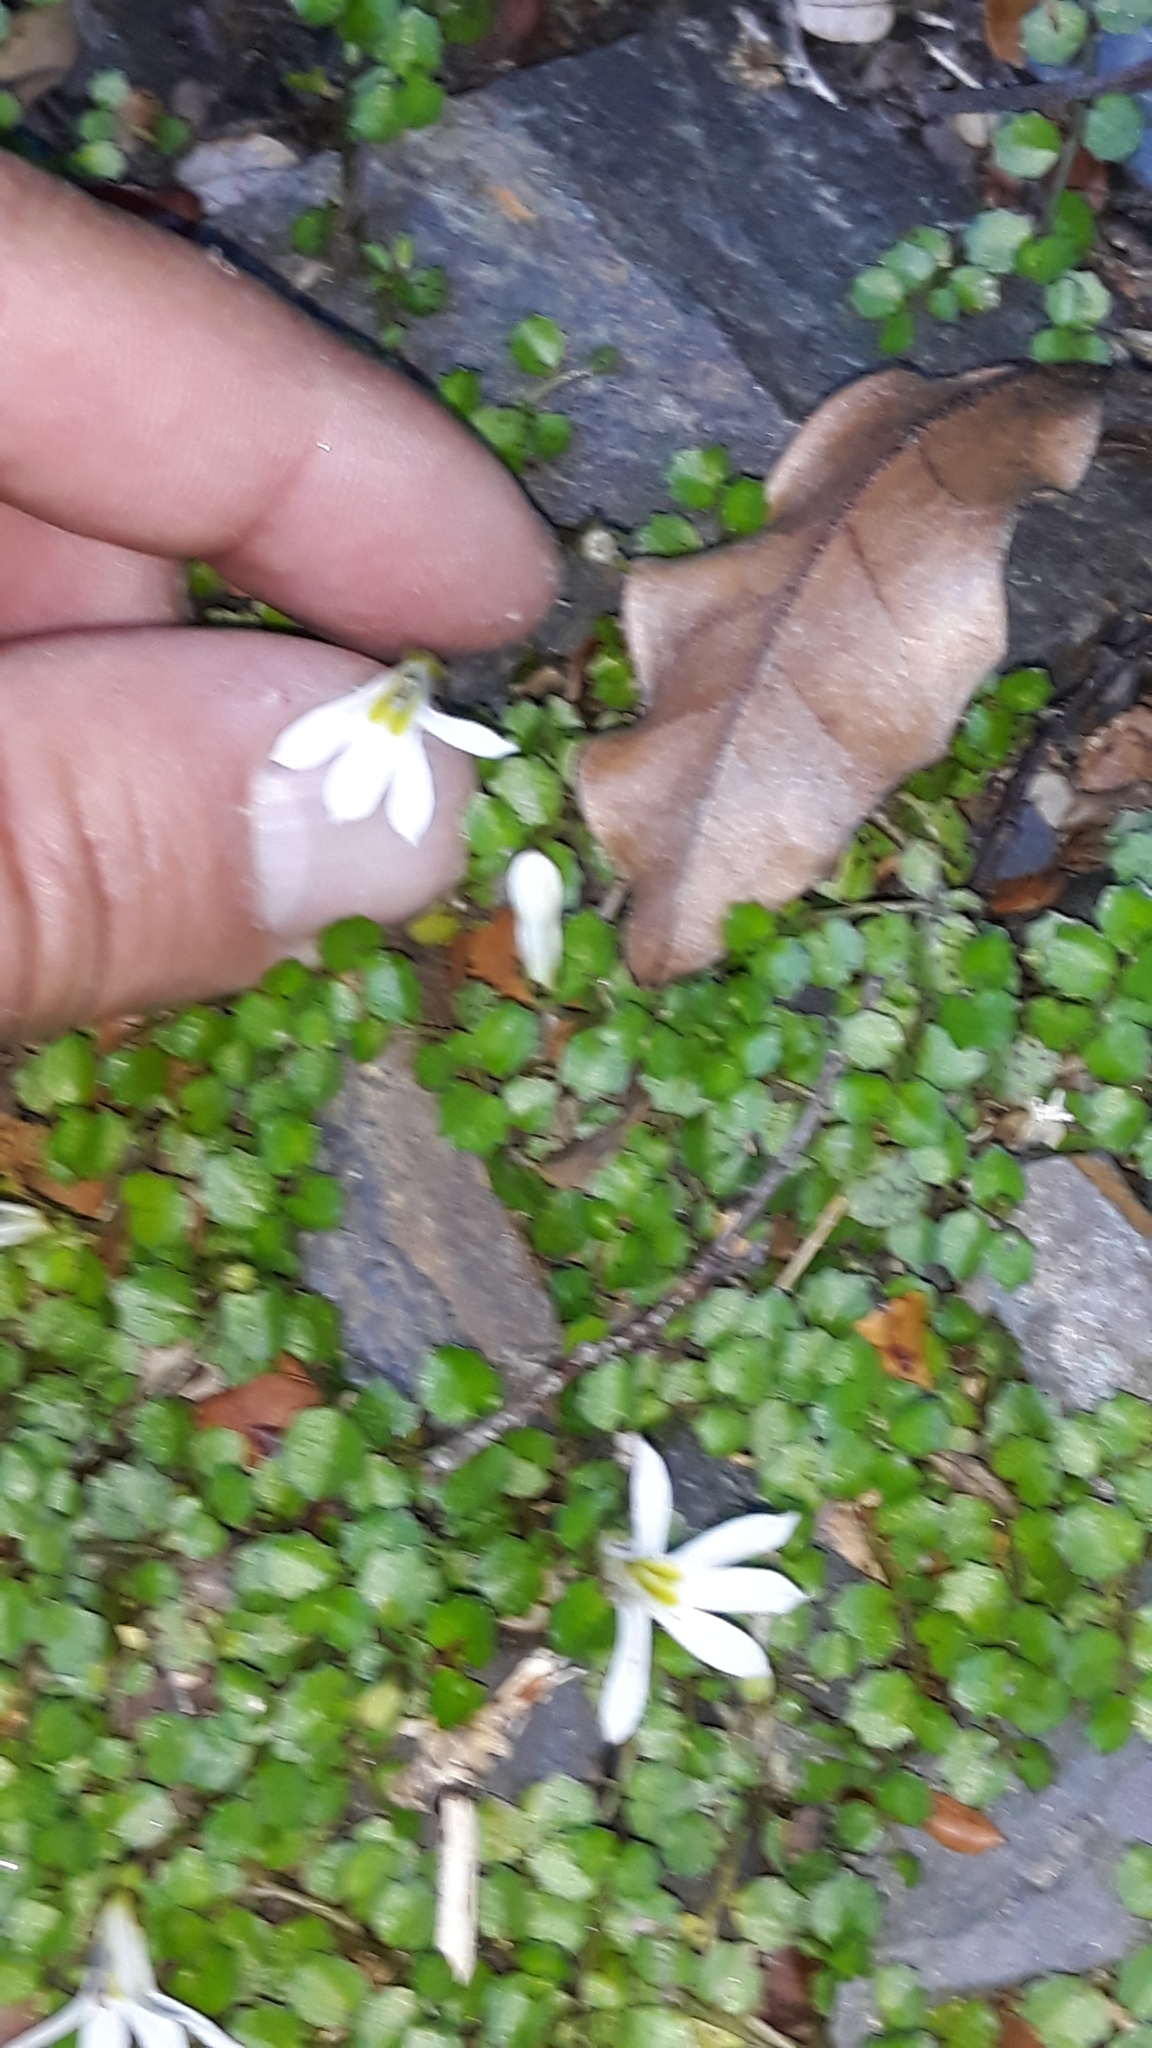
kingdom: Plantae
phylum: Tracheophyta
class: Magnoliopsida
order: Asterales
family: Campanulaceae
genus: Lobelia
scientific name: Lobelia angulata
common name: Lawn lobelia
